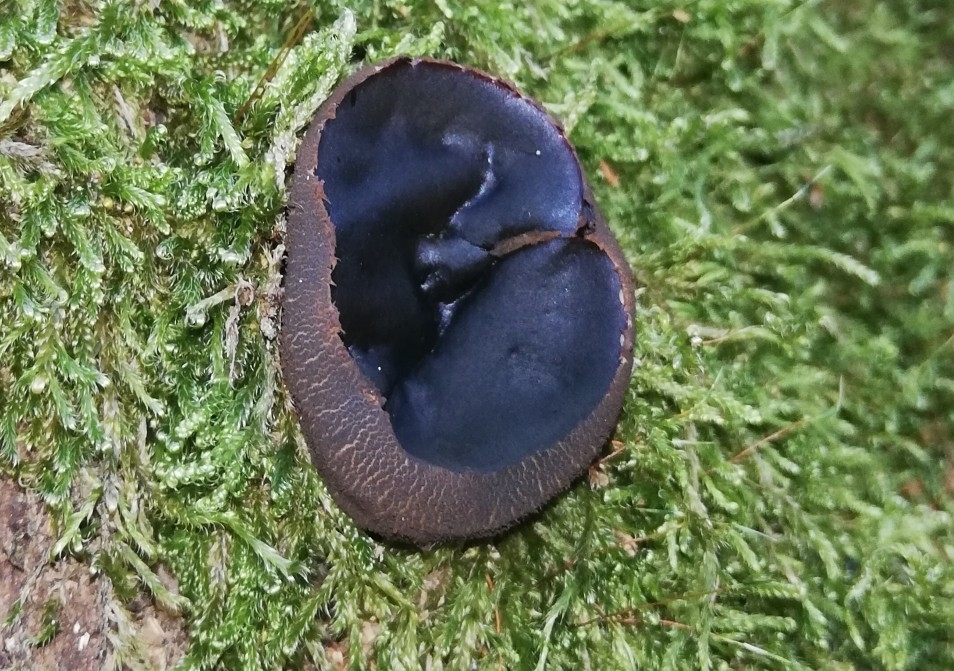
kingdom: Fungi
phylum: Ascomycota
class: Leotiomycetes
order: Phacidiales
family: Phacidiaceae
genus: Bulgaria
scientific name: Bulgaria inquinans
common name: Black bulgar
